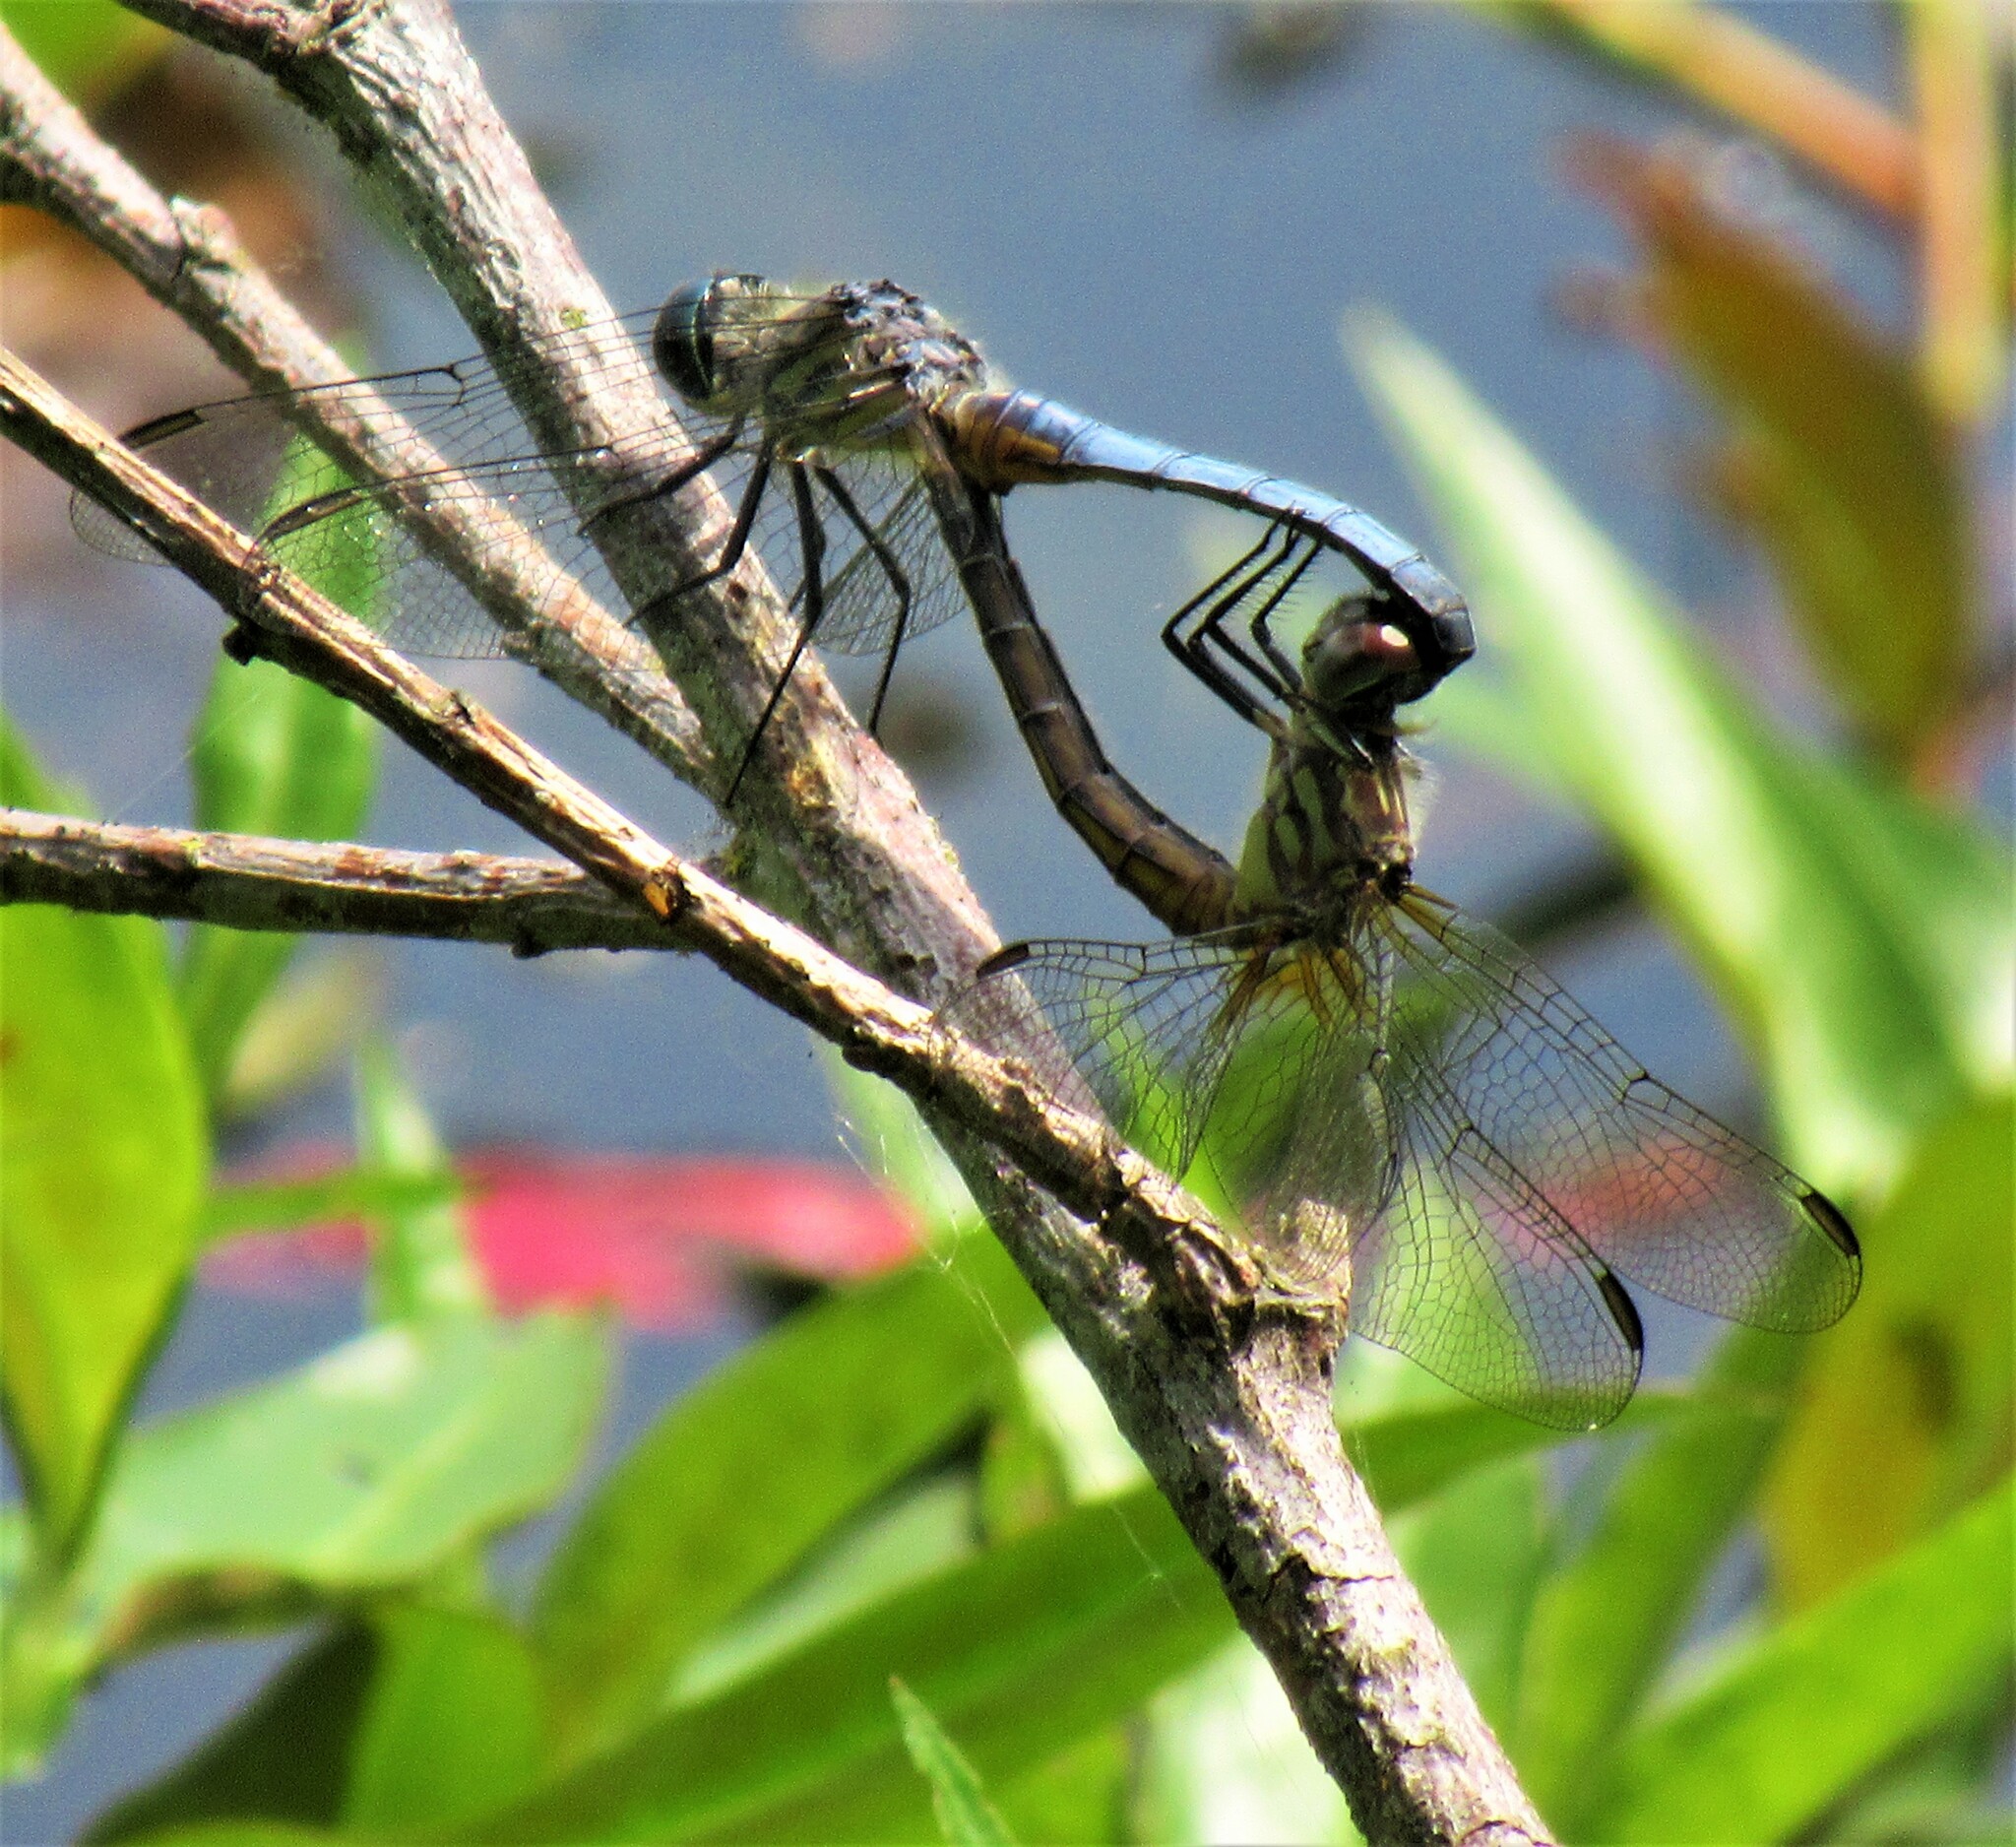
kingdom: Animalia
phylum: Arthropoda
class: Insecta
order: Odonata
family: Libellulidae
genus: Pachydiplax
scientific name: Pachydiplax longipennis
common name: Blue dasher
